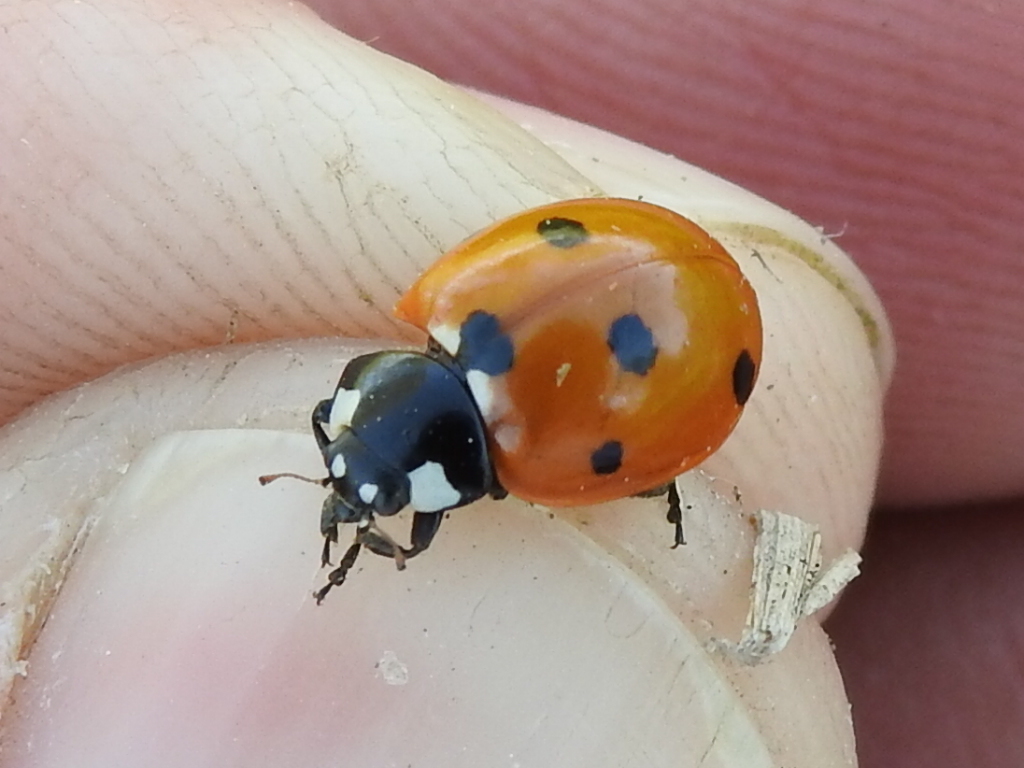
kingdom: Animalia
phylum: Arthropoda
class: Insecta
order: Coleoptera
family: Coccinellidae
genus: Coccinella
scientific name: Coccinella septempunctata
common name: Sevenspotted lady beetle
